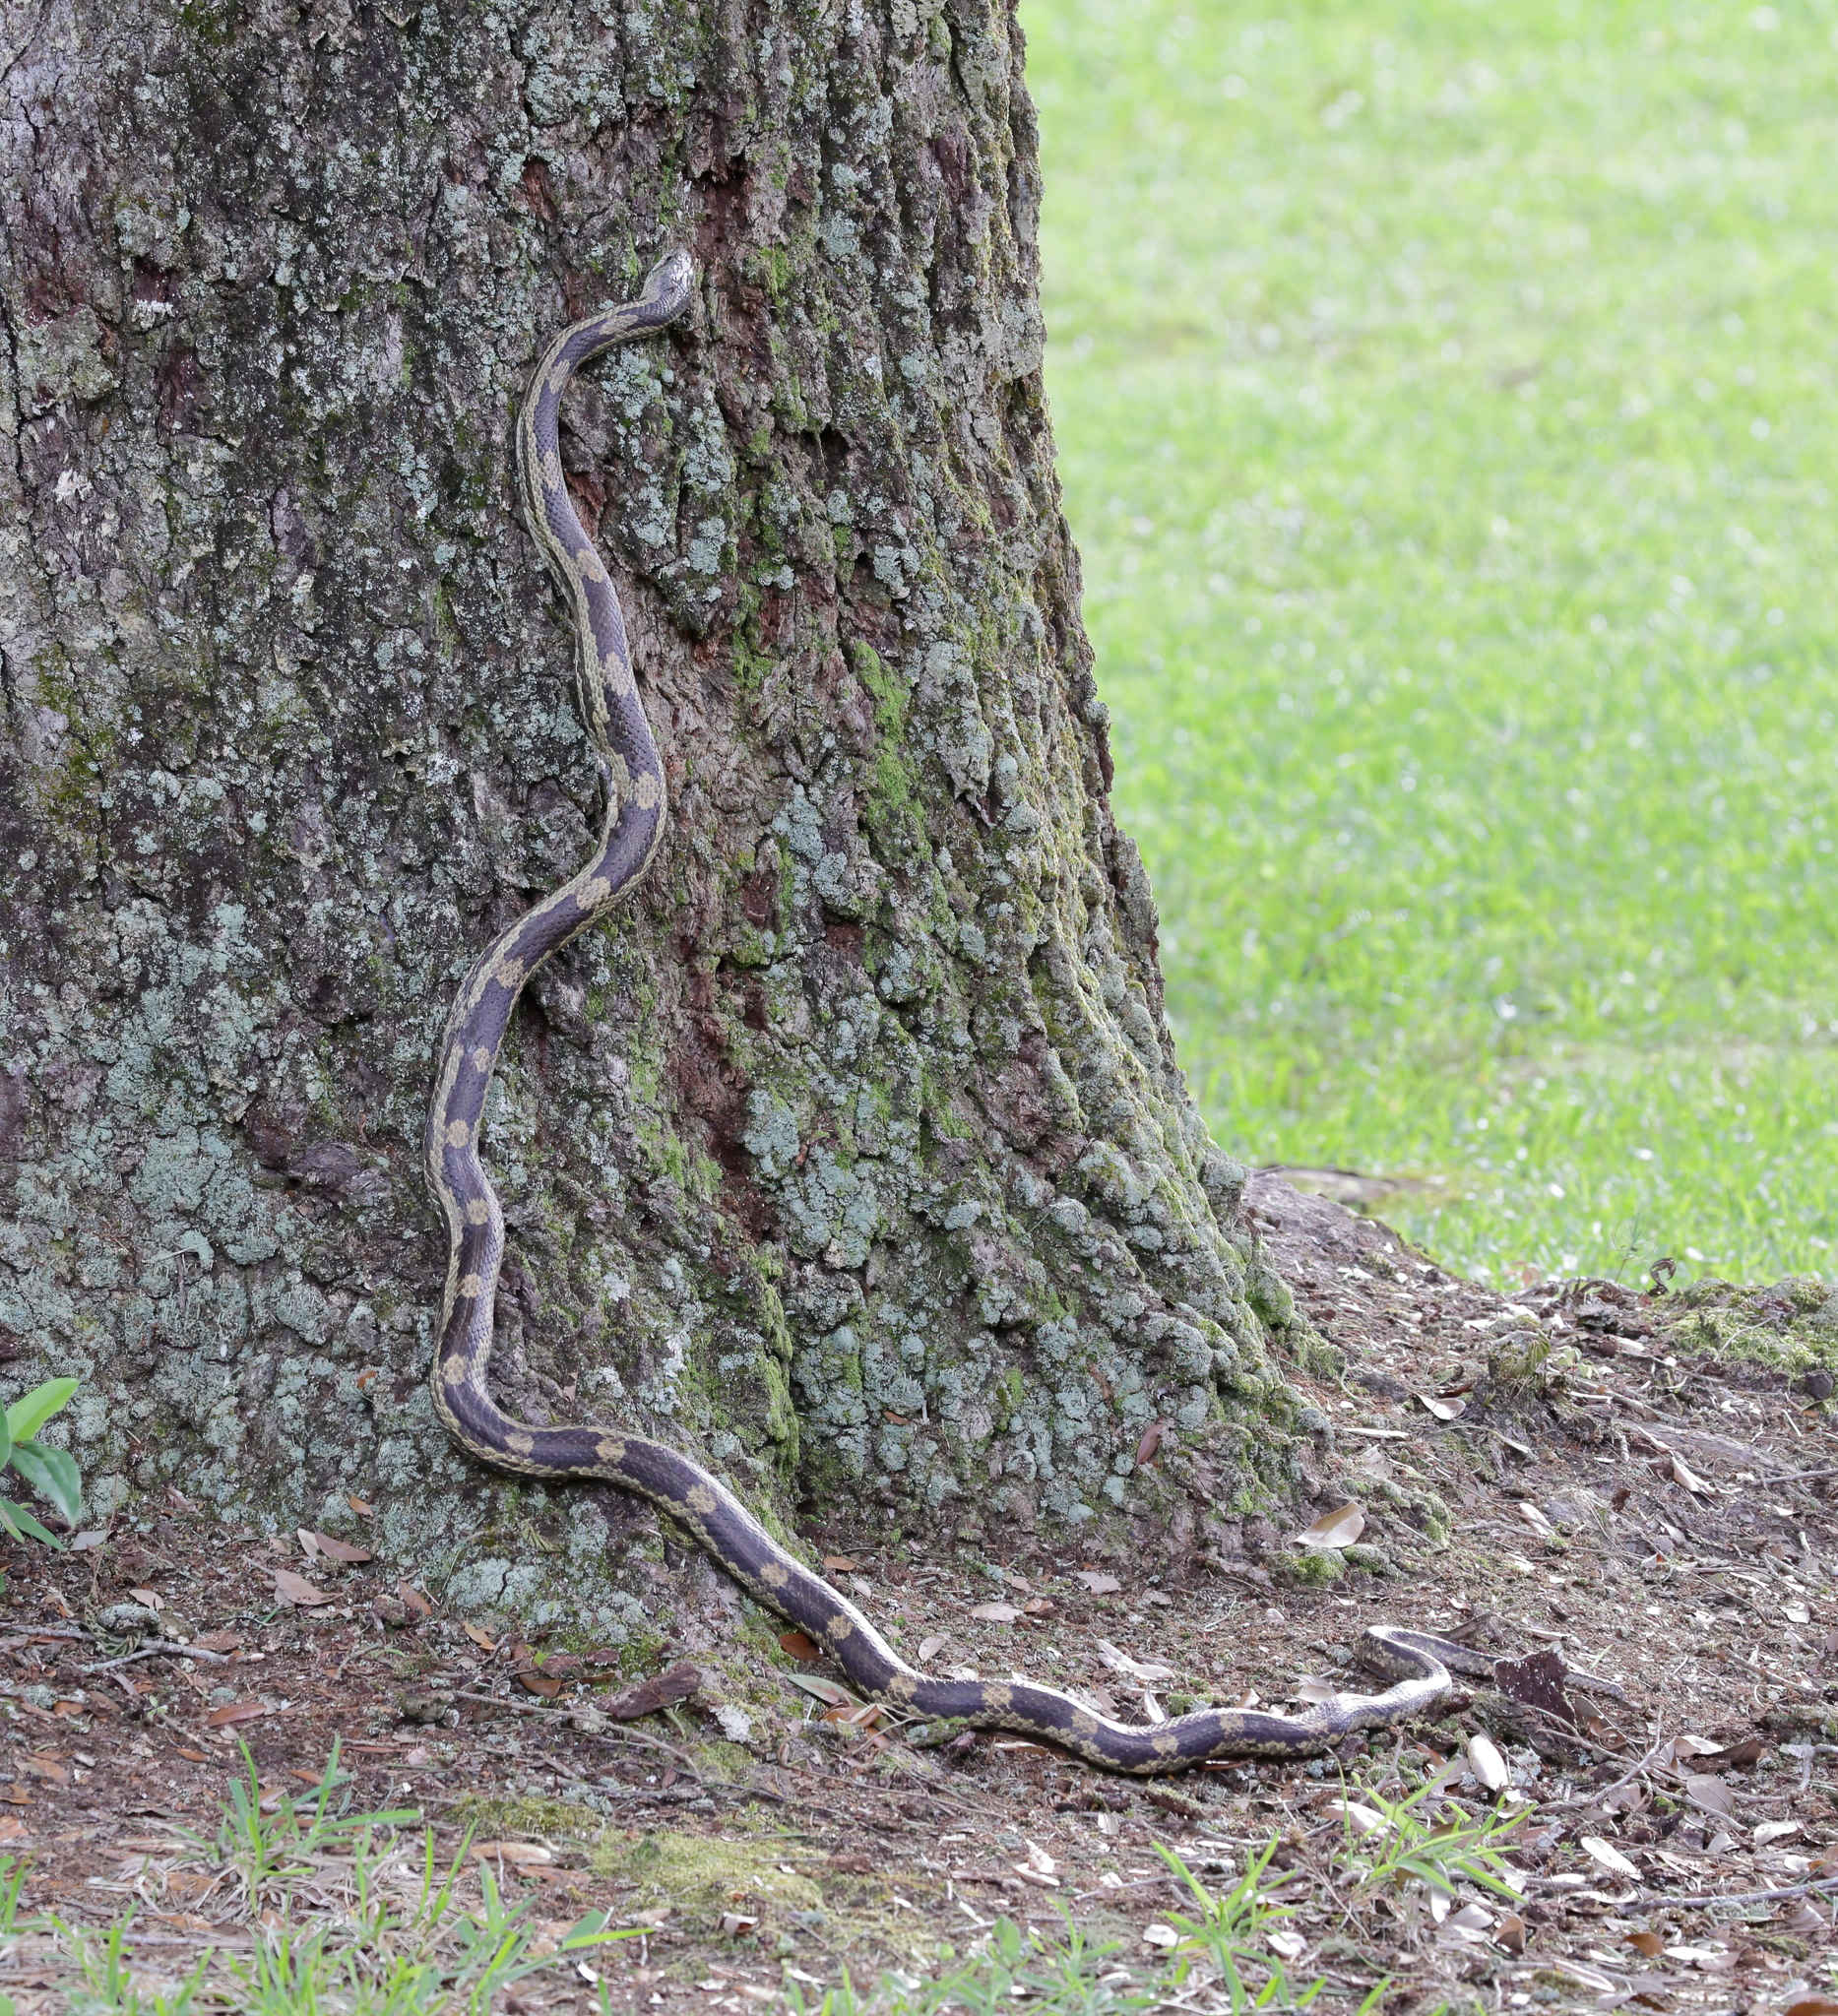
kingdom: Animalia
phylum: Chordata
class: Squamata
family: Colubridae
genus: Pantherophis
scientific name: Pantherophis spiloides
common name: Gray rat snake
